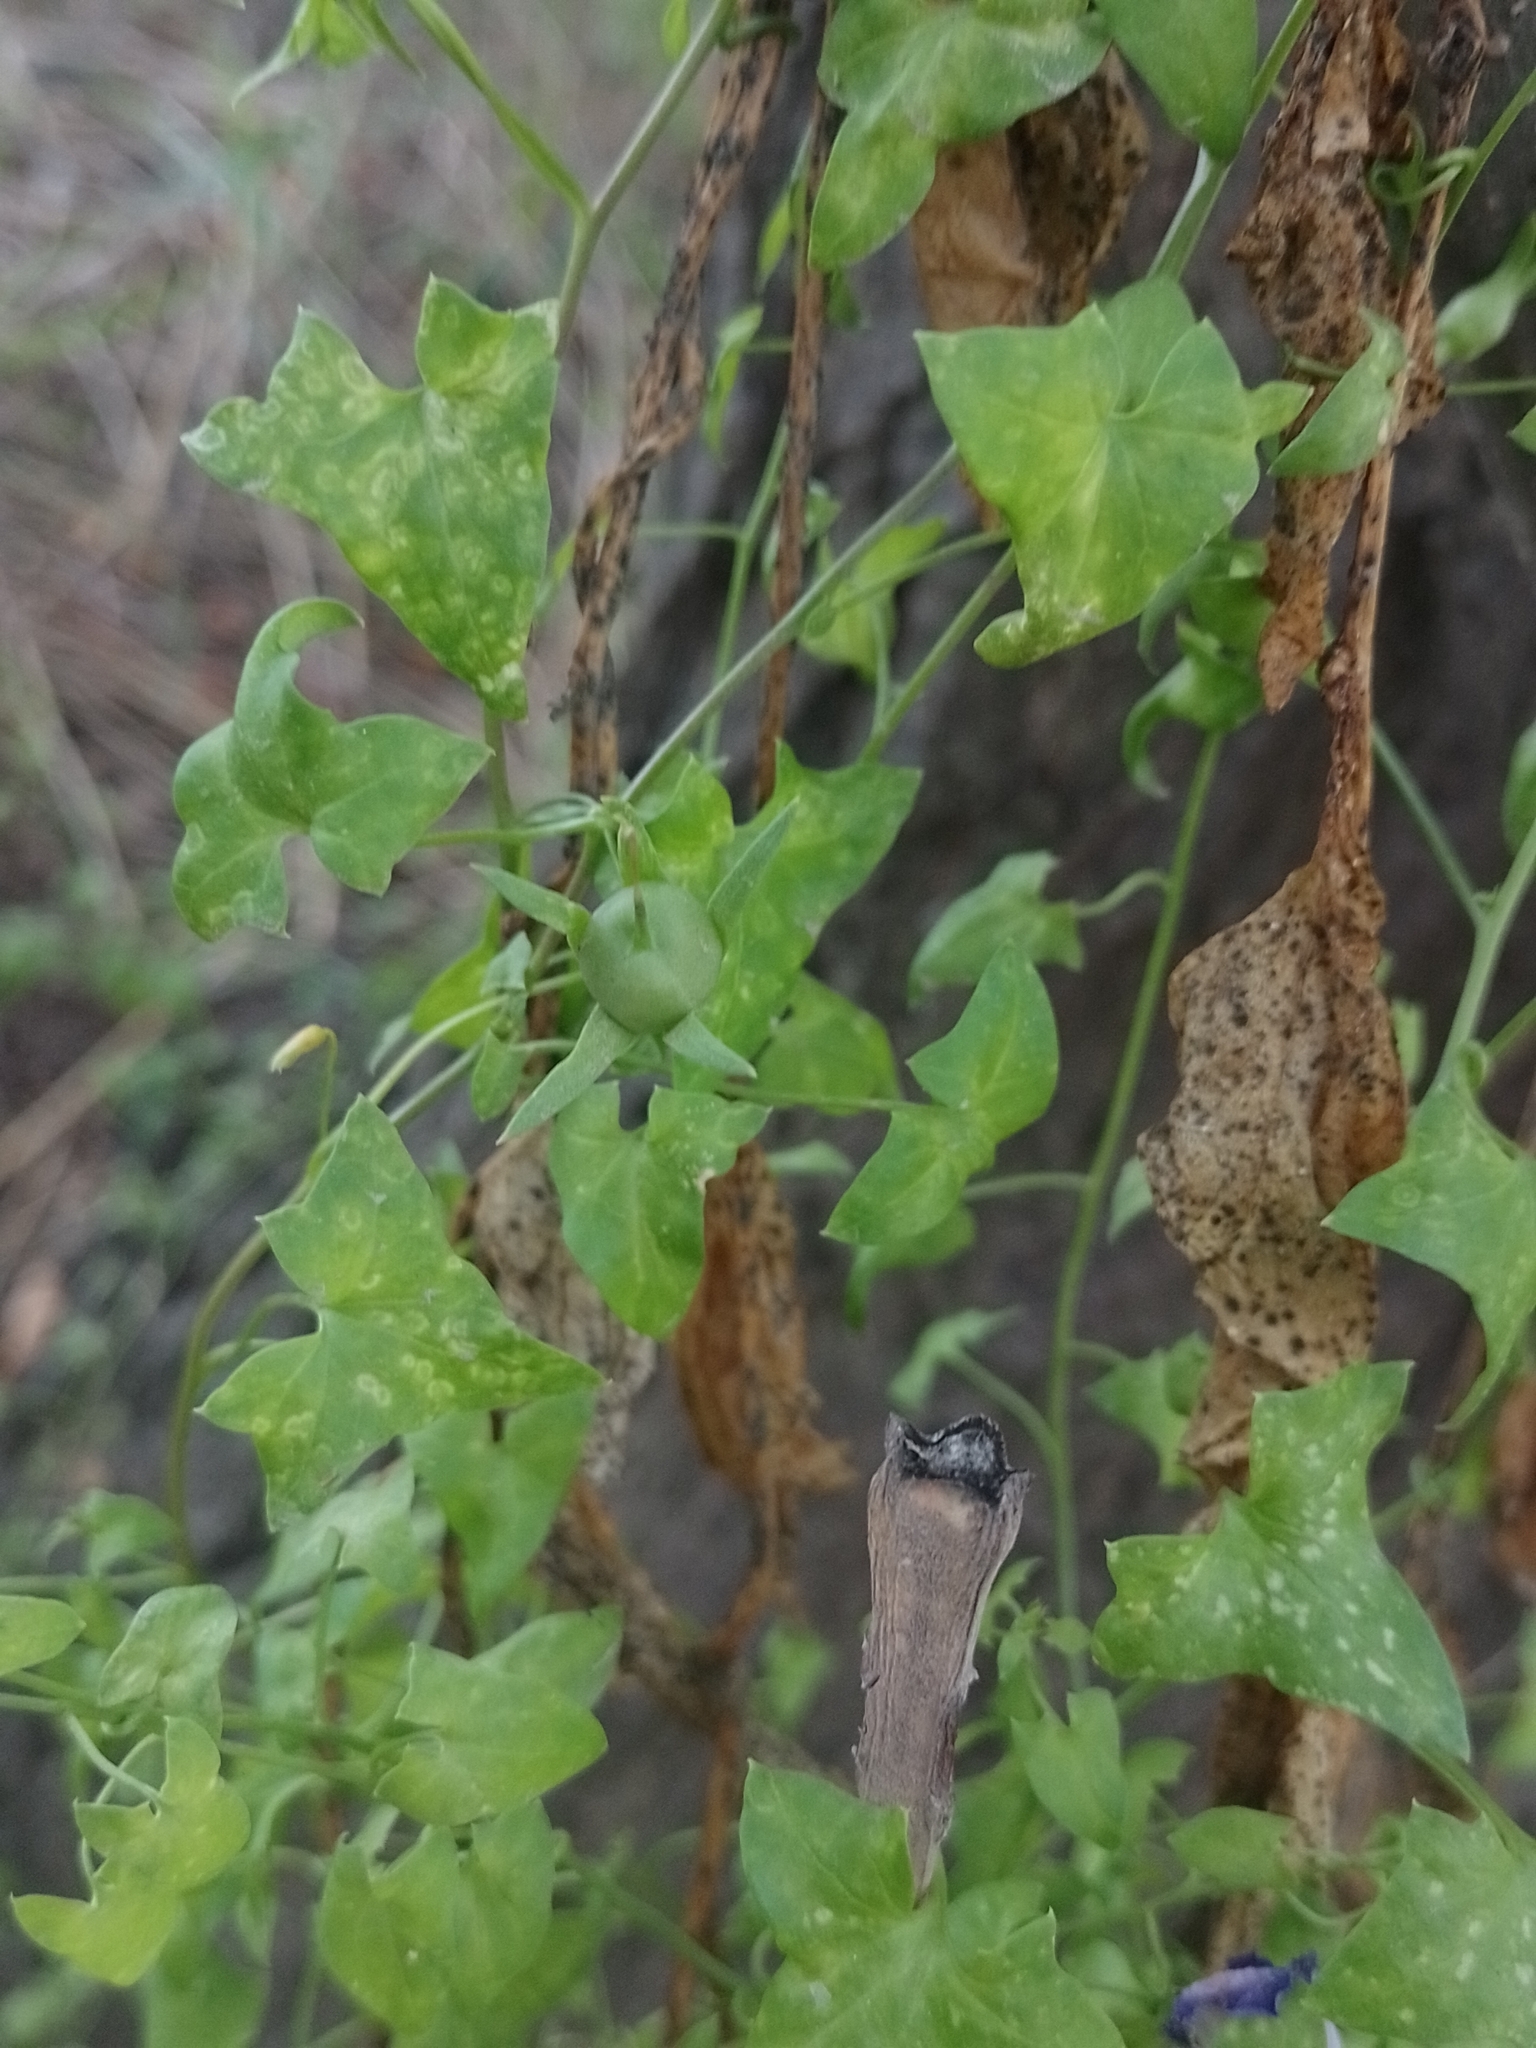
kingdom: Plantae
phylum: Tracheophyta
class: Magnoliopsida
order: Lamiales
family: Plantaginaceae
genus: Maurandella
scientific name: Maurandella antirrhiniflora
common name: Violet twining-snapdragon
